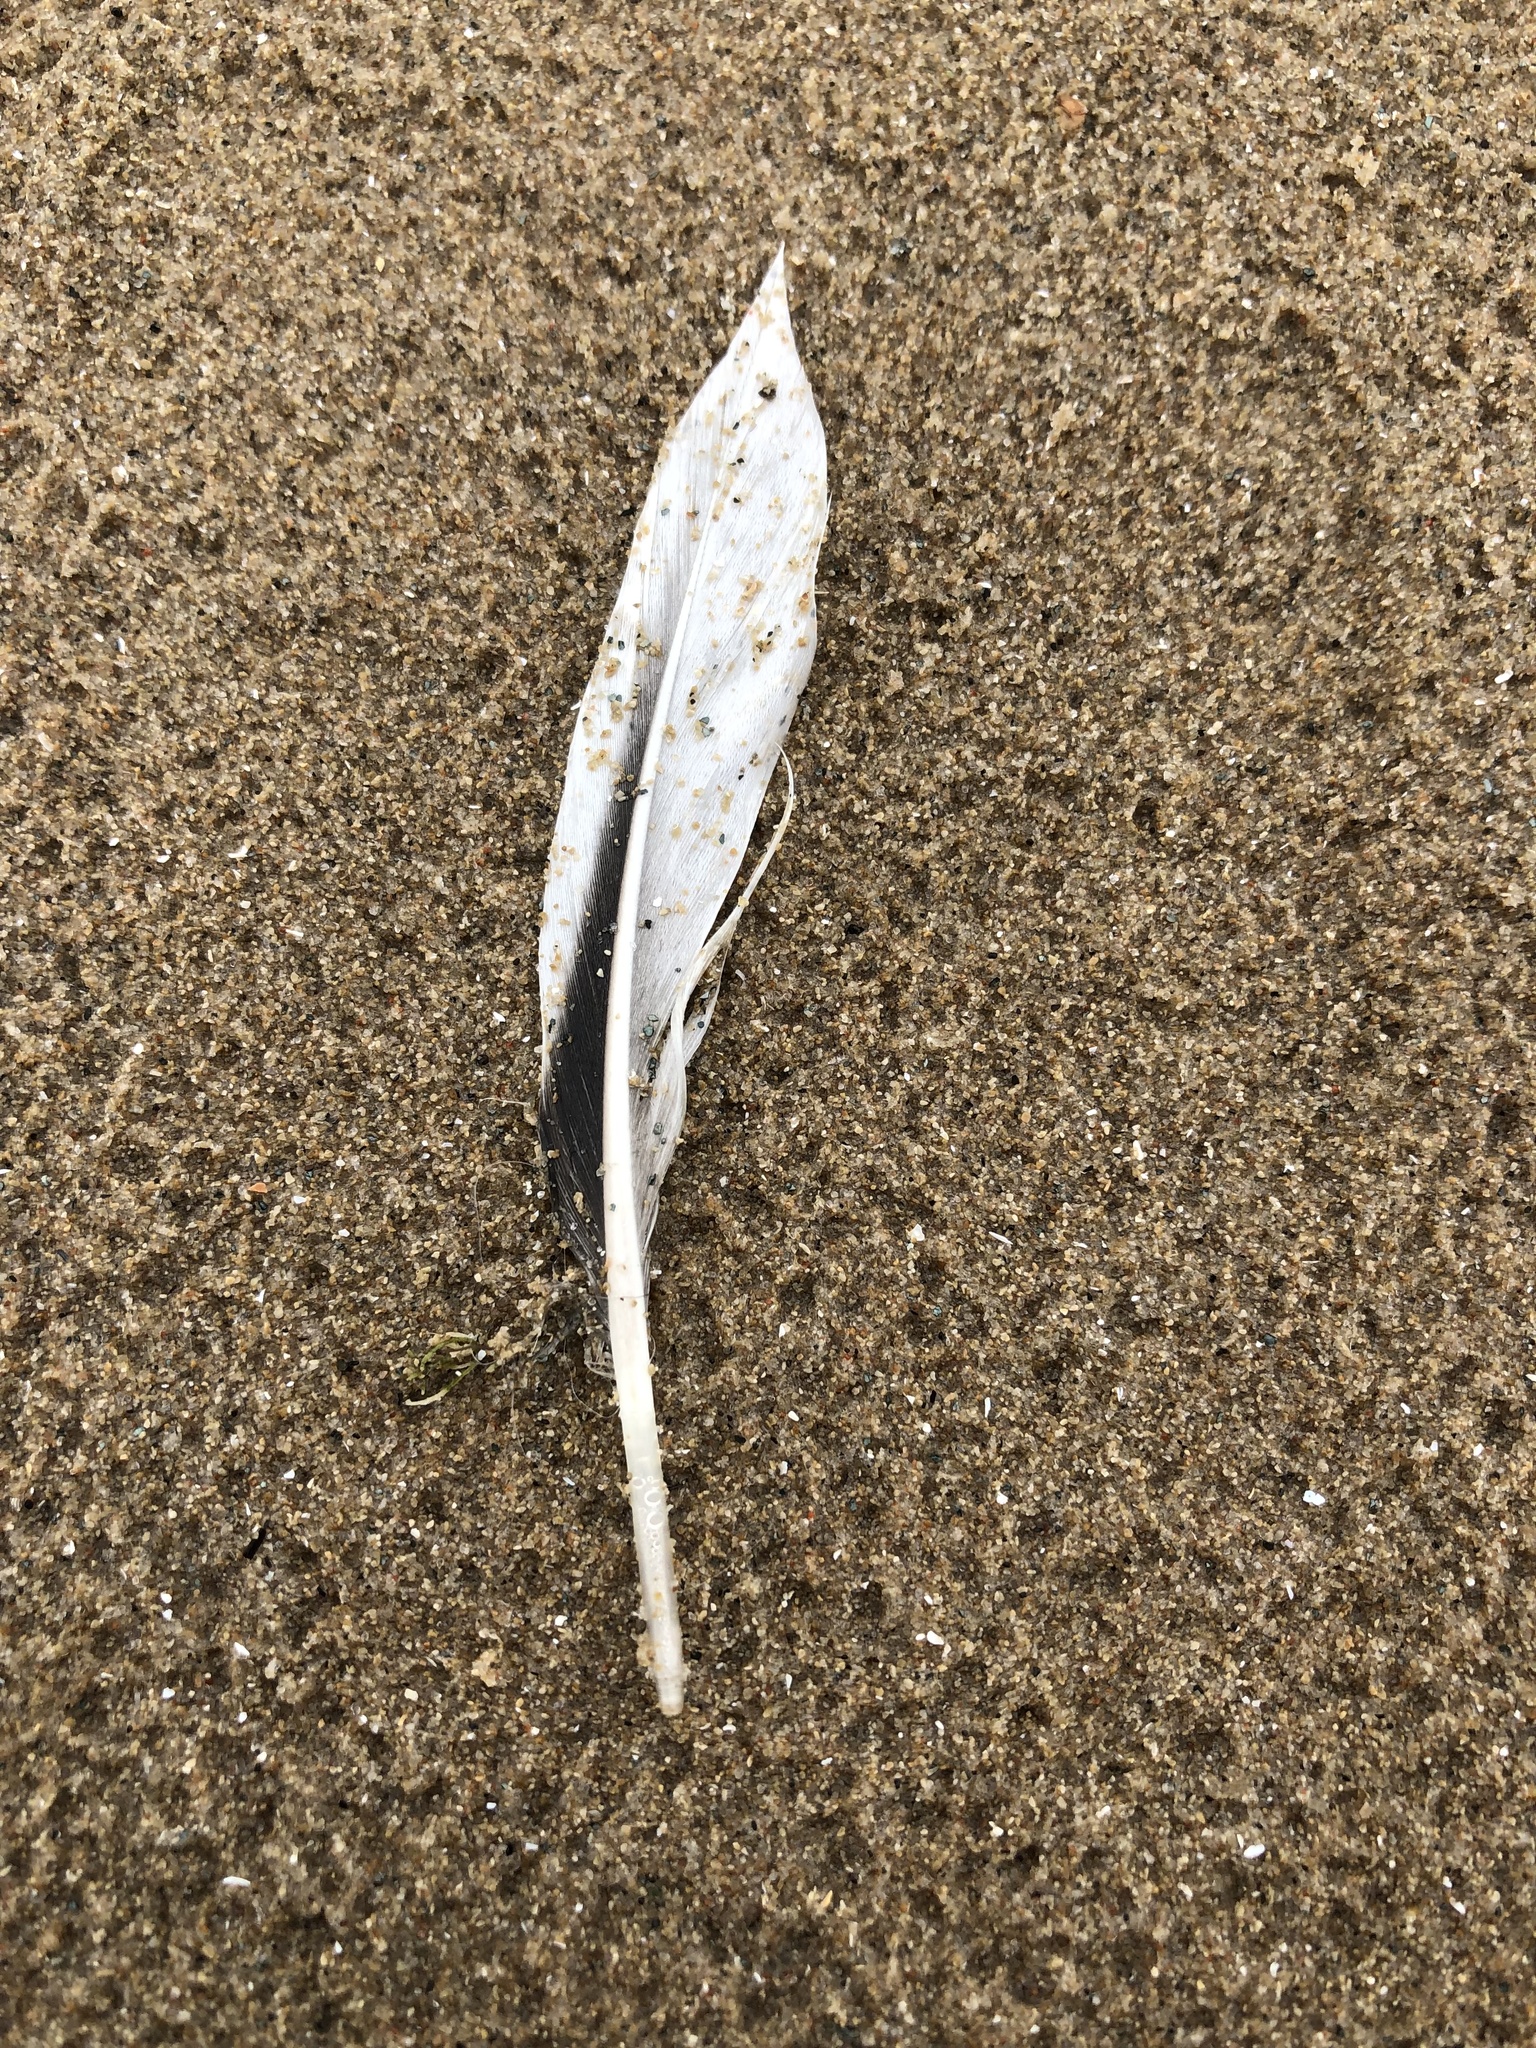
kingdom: Animalia
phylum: Chordata
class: Aves
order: Anseriformes
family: Anatidae
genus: Clangula
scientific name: Clangula hyemalis
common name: Long-tailed duck
